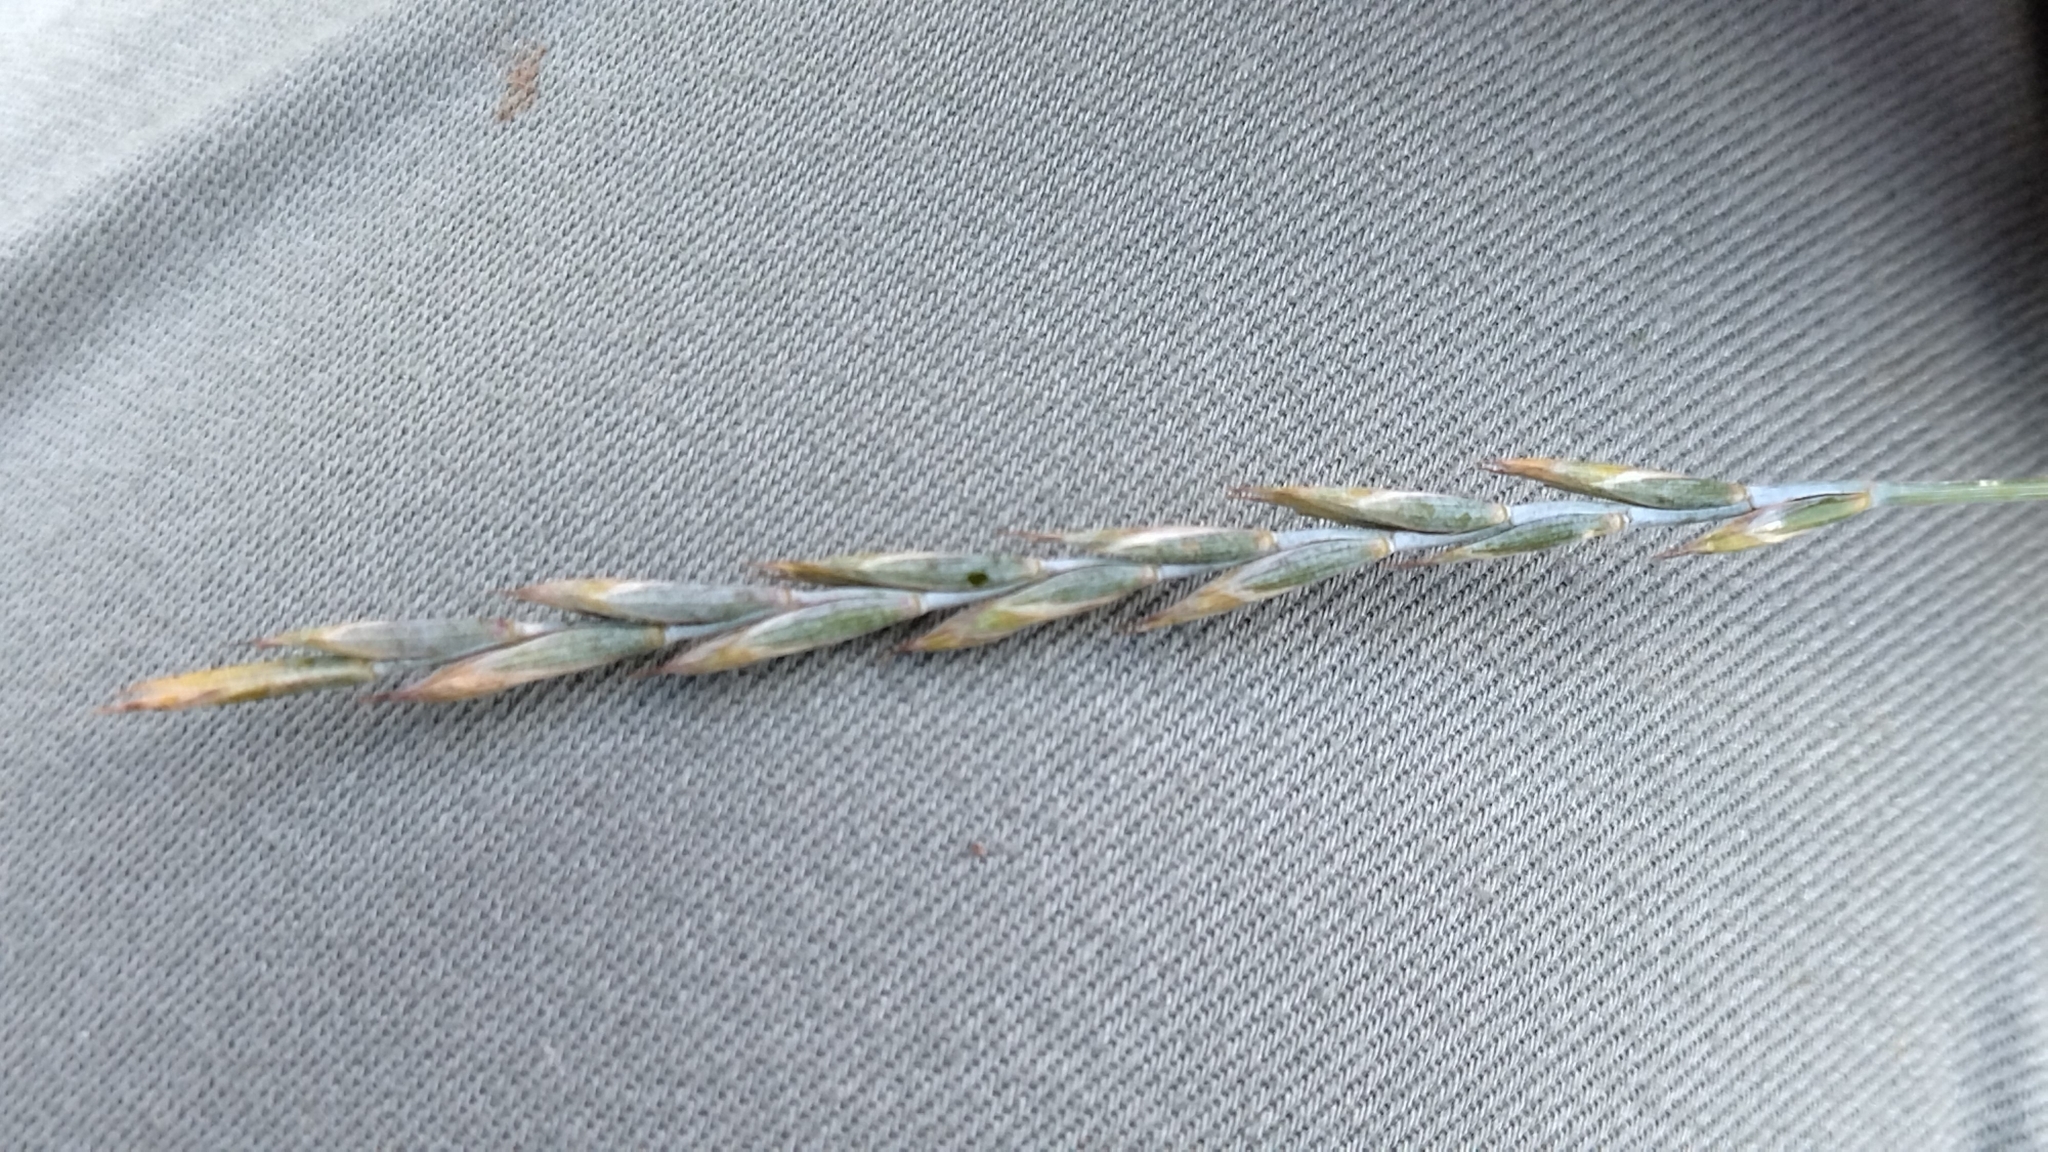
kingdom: Plantae
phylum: Tracheophyta
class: Liliopsida
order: Poales
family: Poaceae
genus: Elymus
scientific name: Elymus repens
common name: Quackgrass
